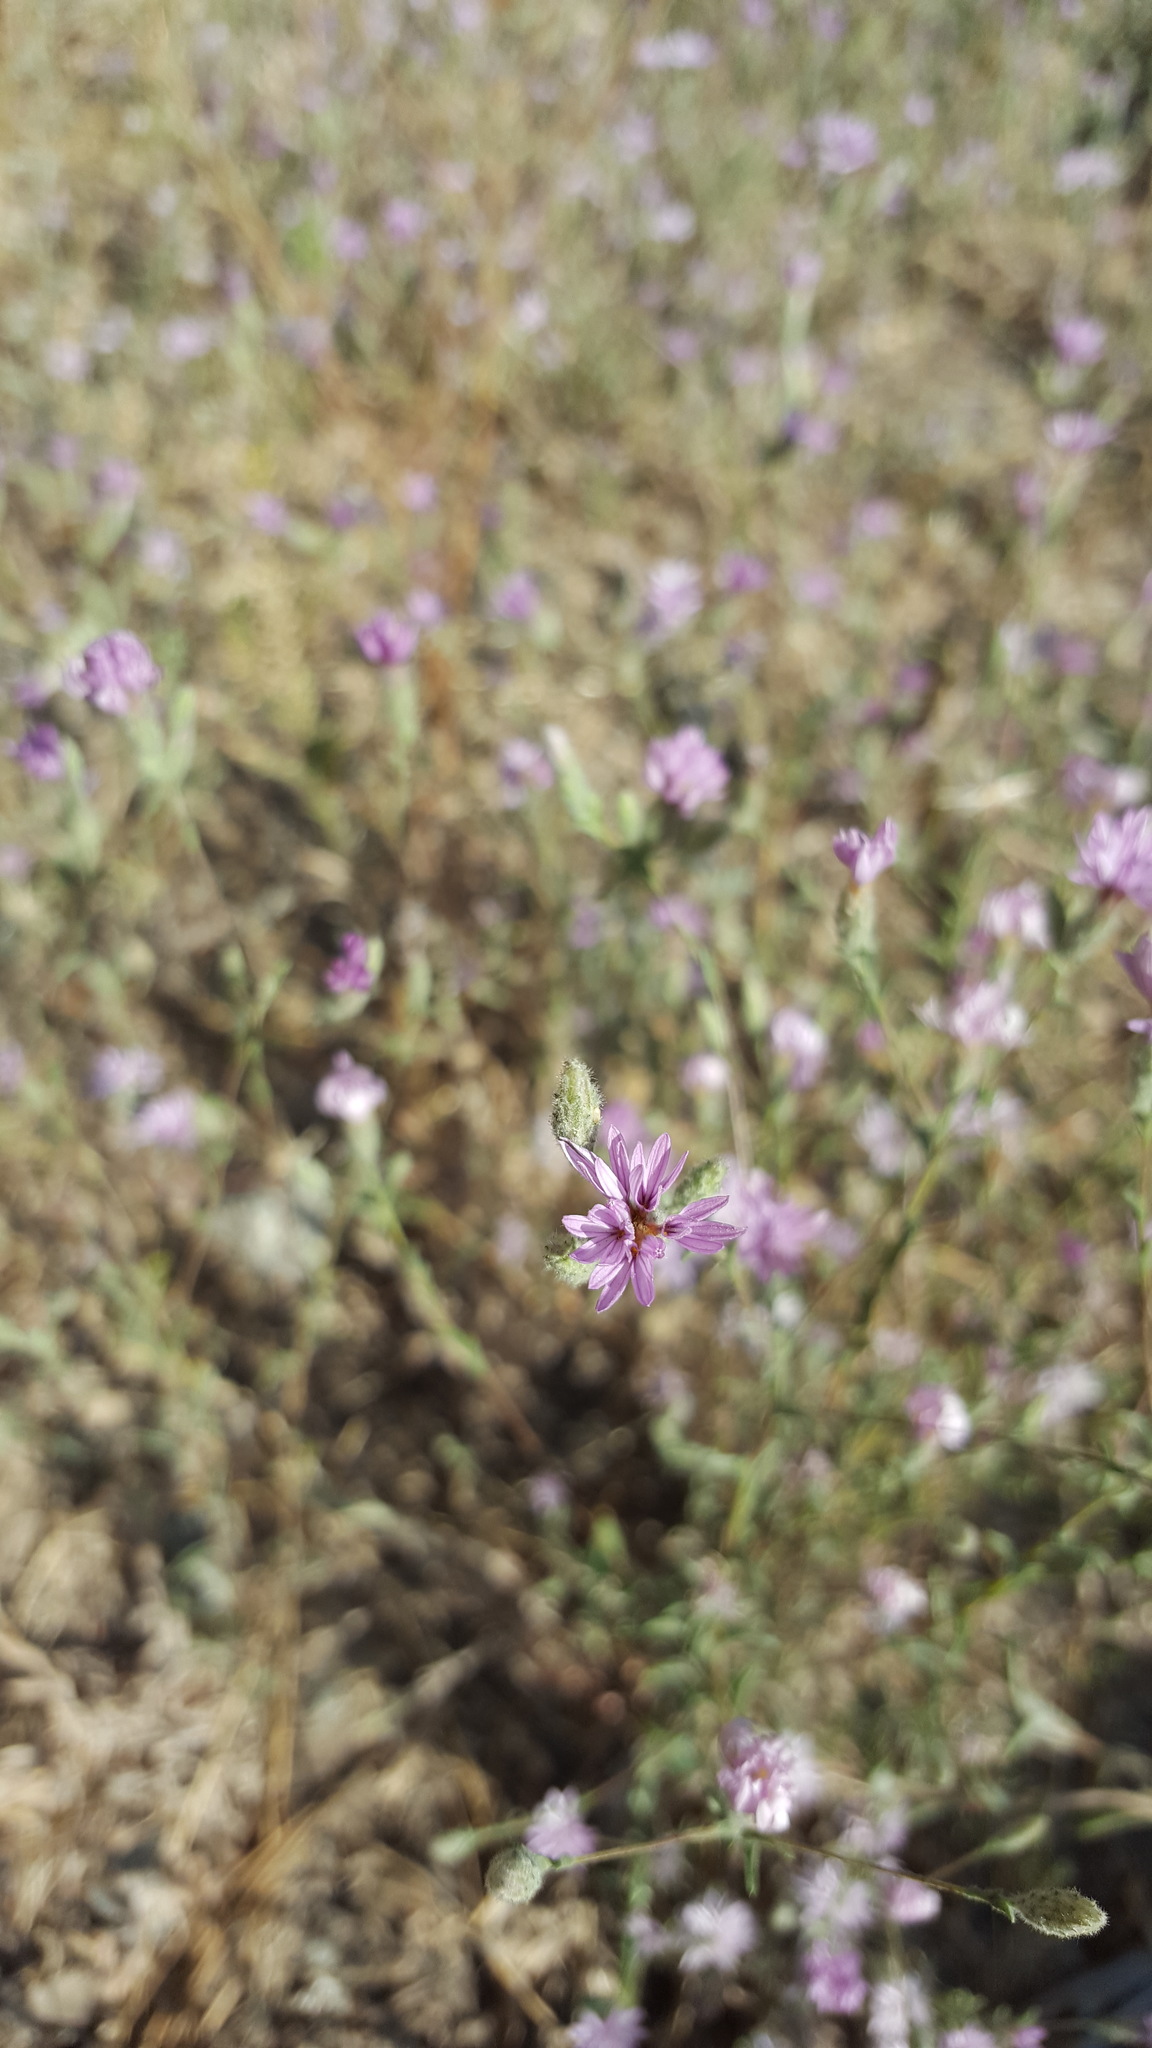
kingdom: Plantae
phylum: Tracheophyta
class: Magnoliopsida
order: Asterales
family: Asteraceae
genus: Lessingia
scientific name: Lessingia leptoclada
